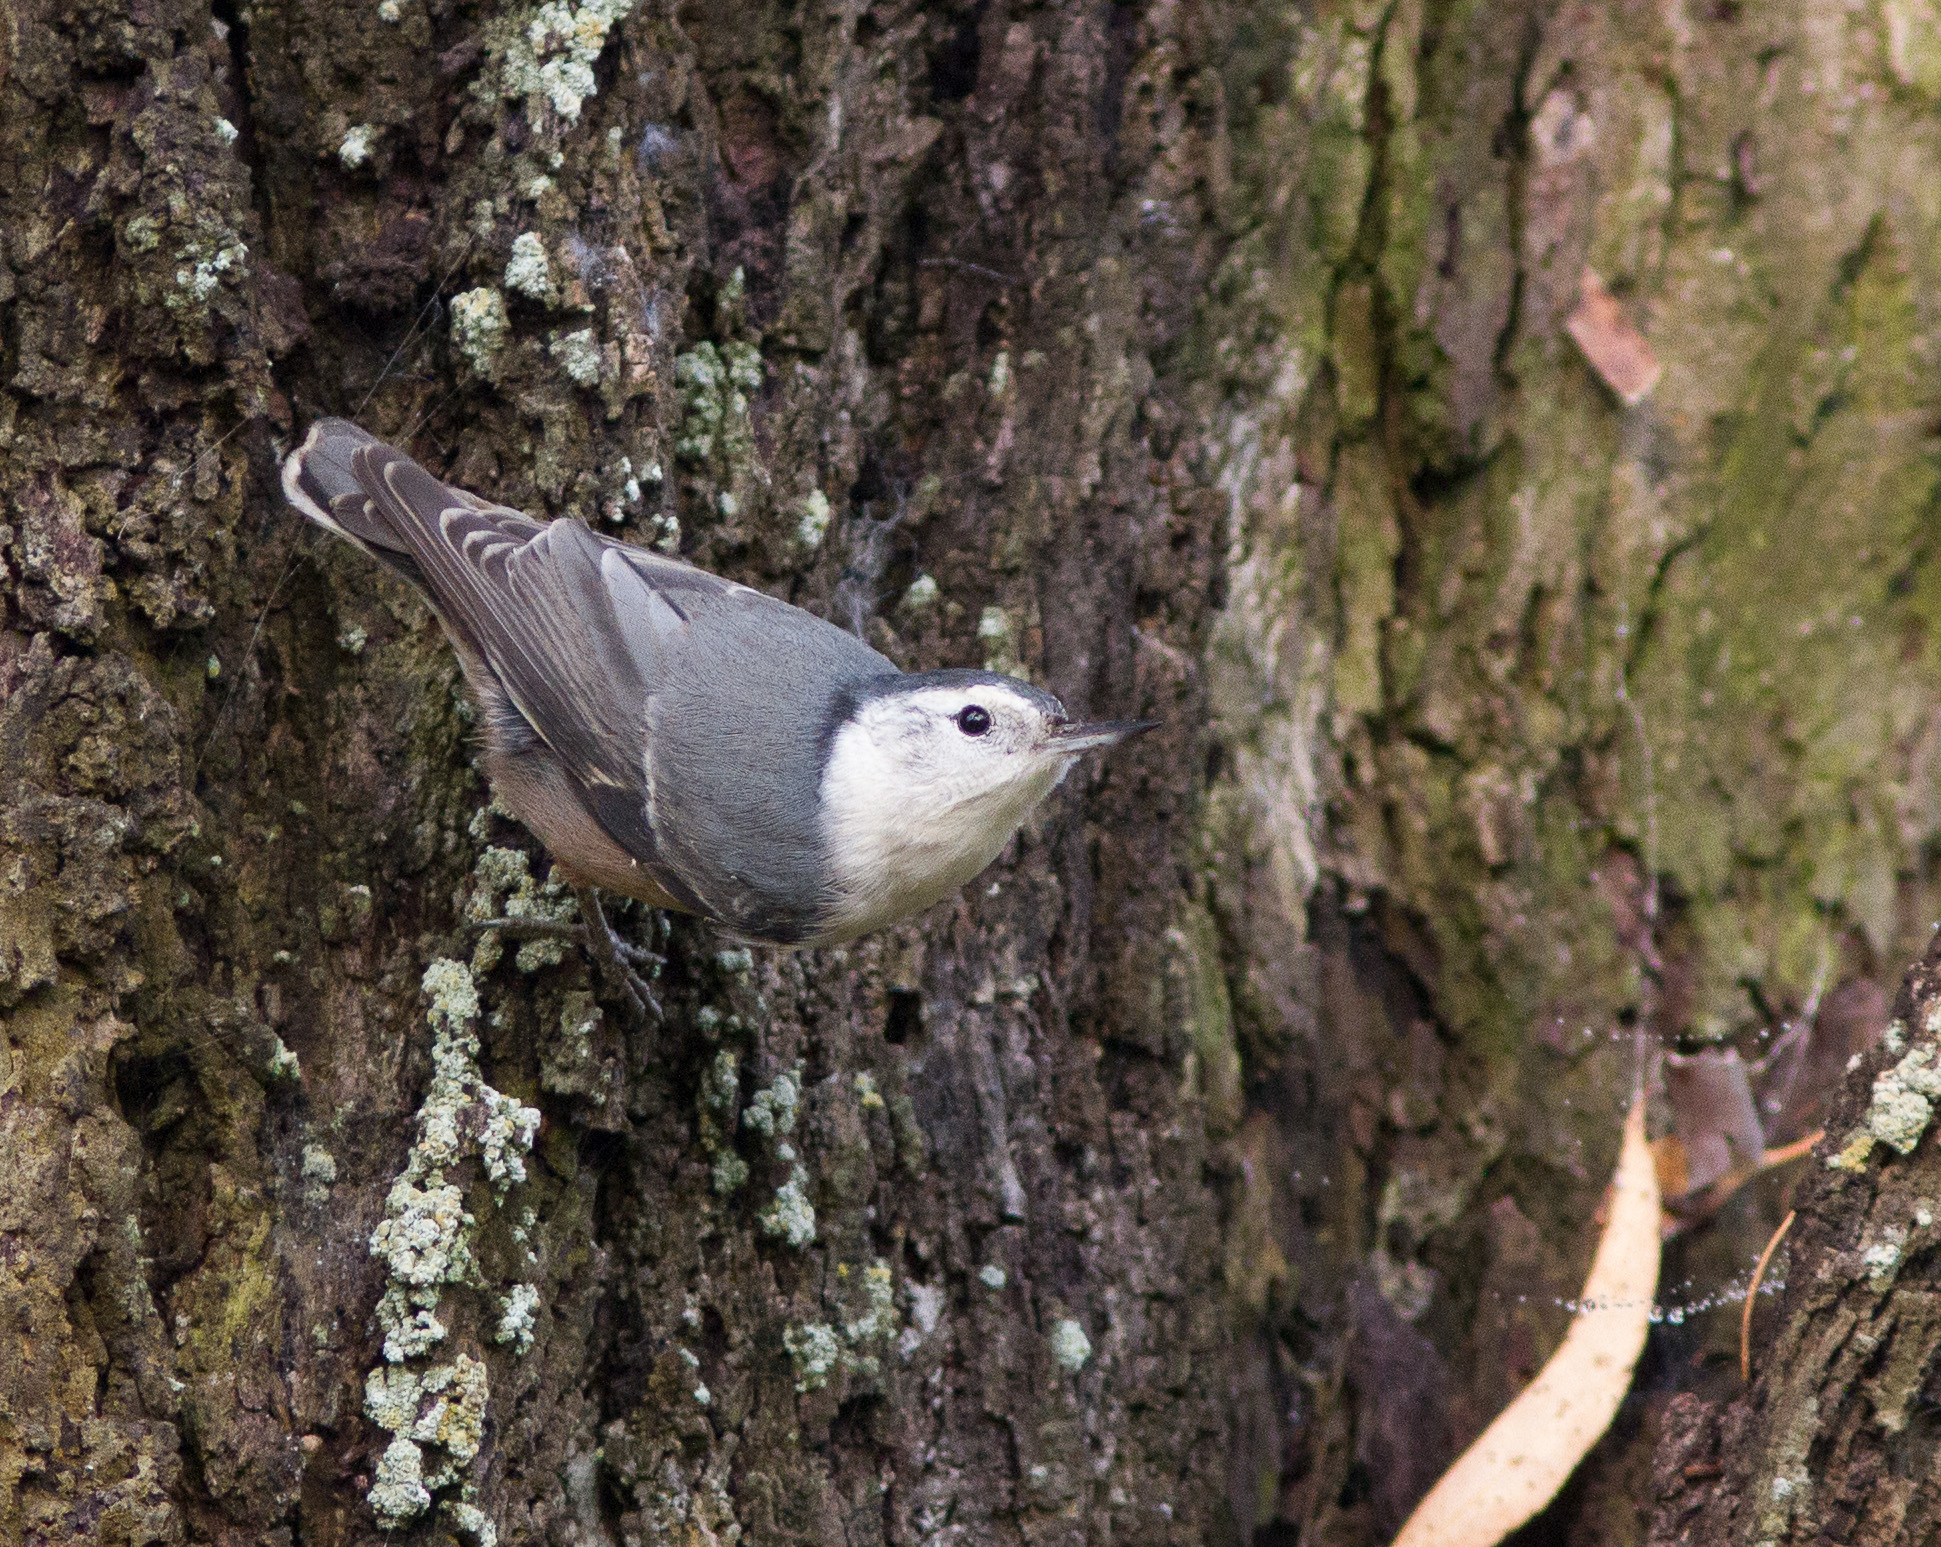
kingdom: Animalia
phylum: Chordata
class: Aves
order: Passeriformes
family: Sittidae
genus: Sitta
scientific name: Sitta carolinensis
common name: White-breasted nuthatch
